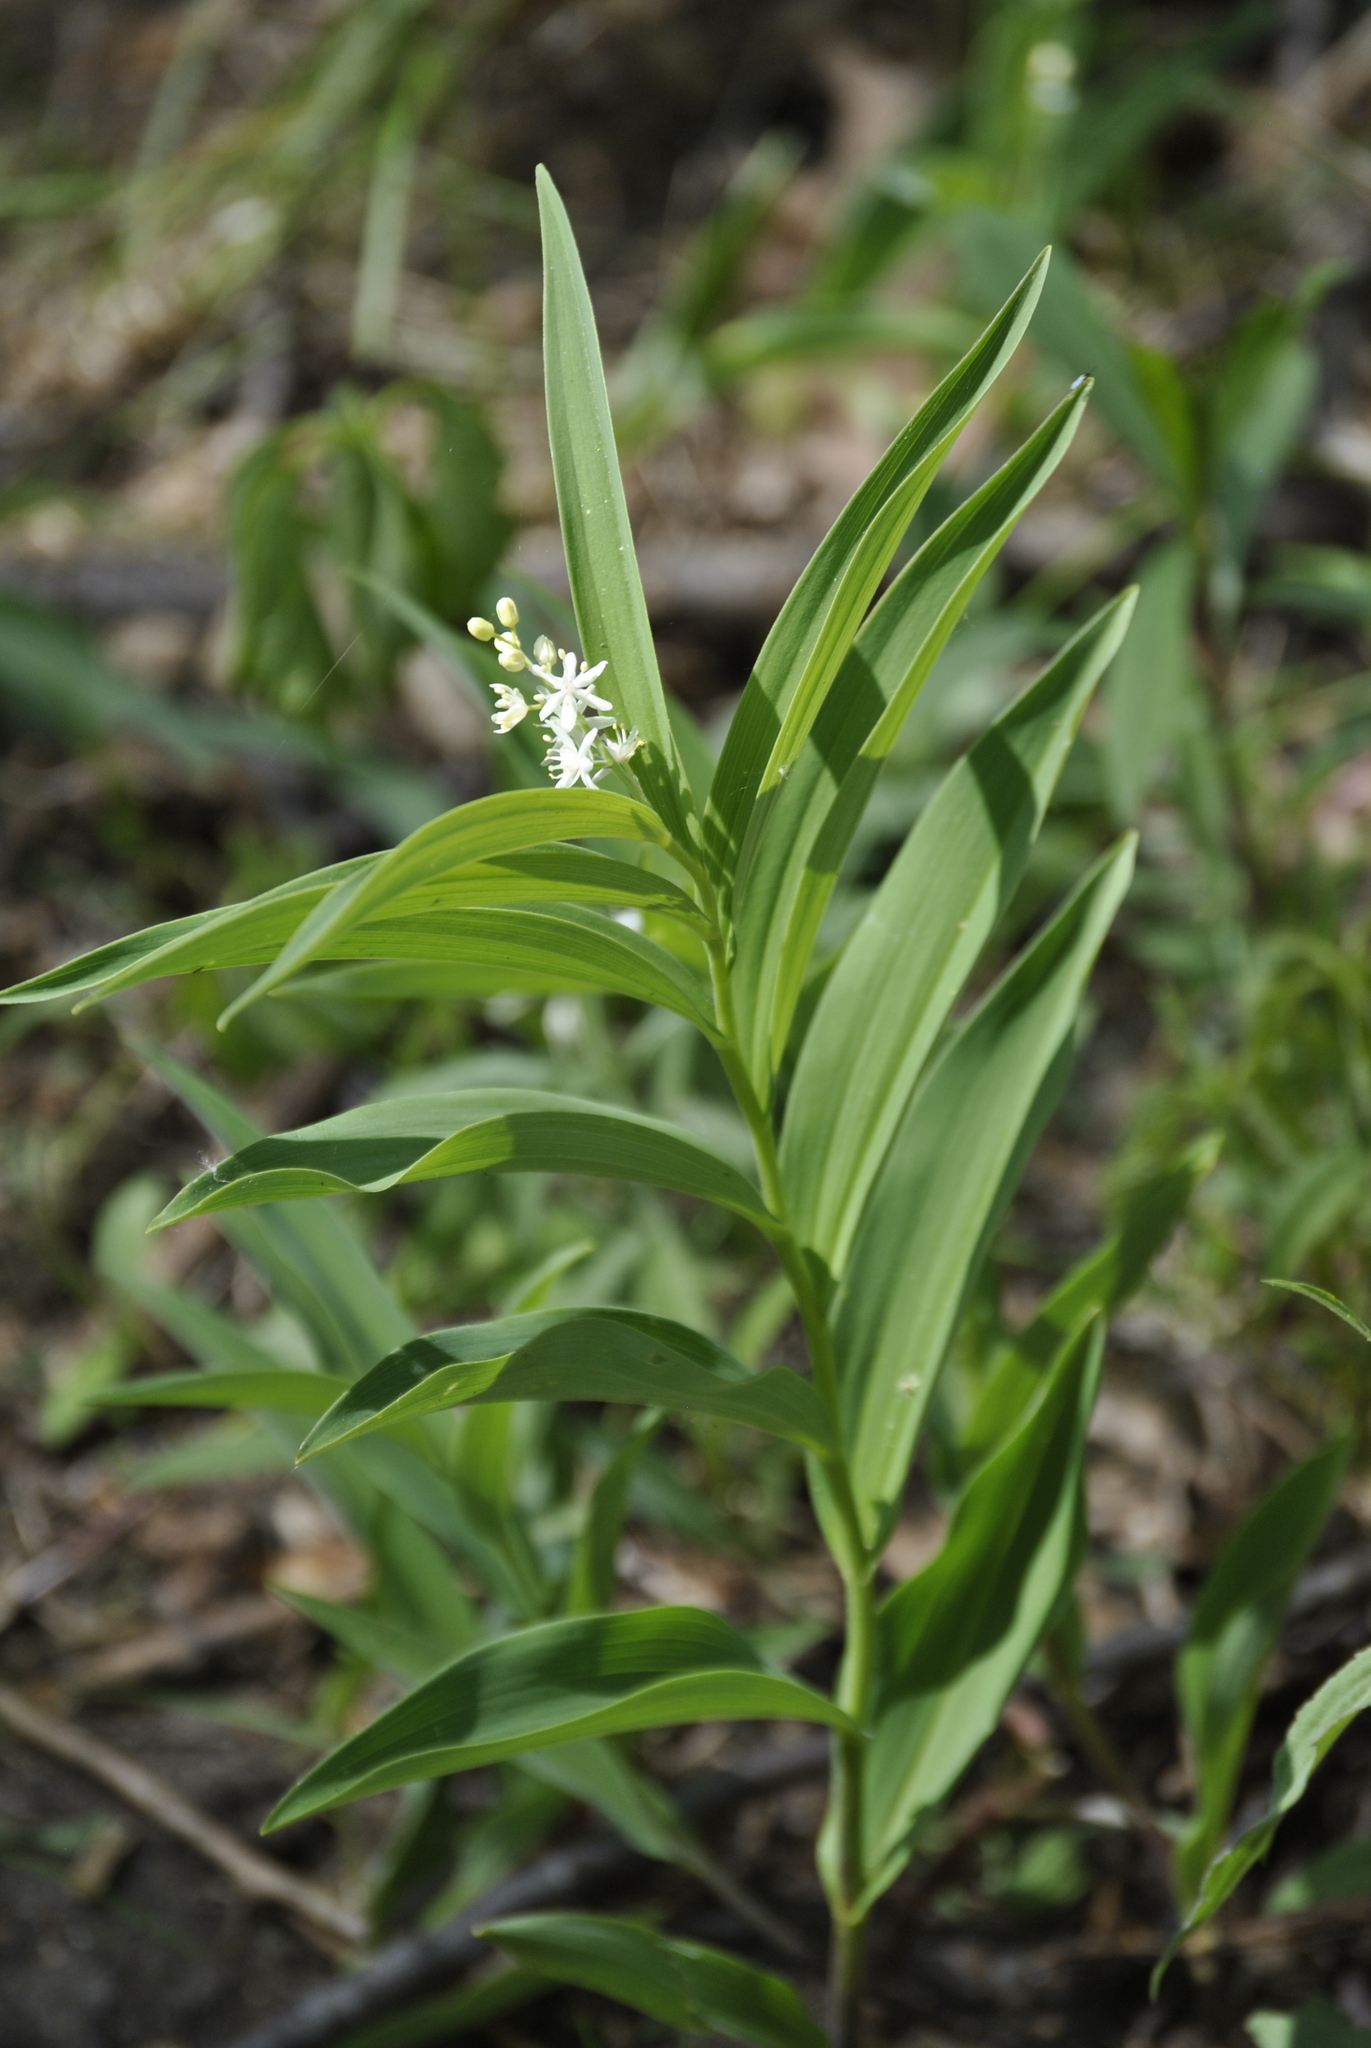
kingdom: Plantae
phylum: Tracheophyta
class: Liliopsida
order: Asparagales
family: Asparagaceae
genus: Maianthemum
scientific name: Maianthemum stellatum
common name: Little false solomon's seal
